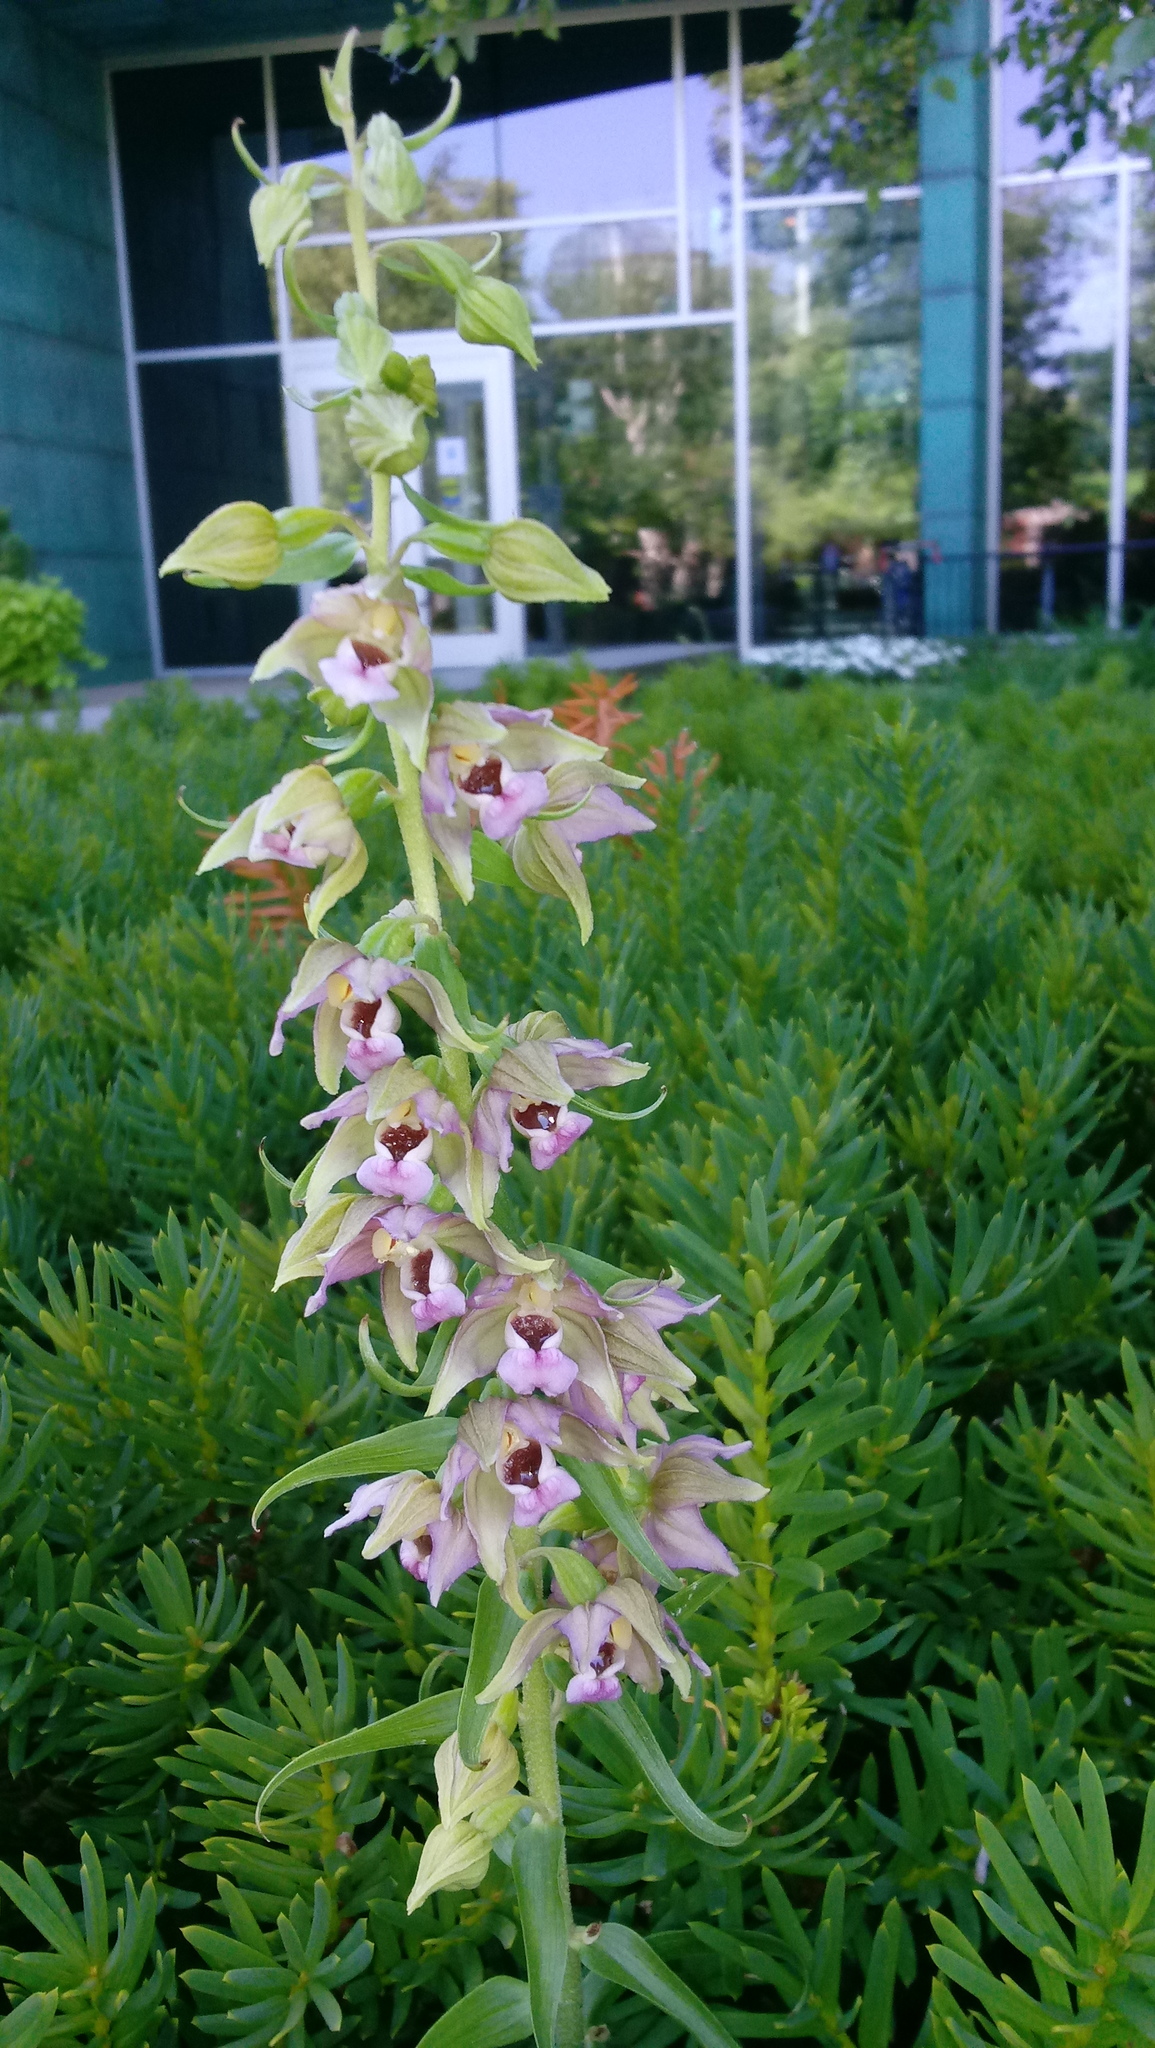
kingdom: Plantae
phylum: Tracheophyta
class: Liliopsida
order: Asparagales
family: Orchidaceae
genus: Epipactis
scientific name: Epipactis helleborine
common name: Broad-leaved helleborine
